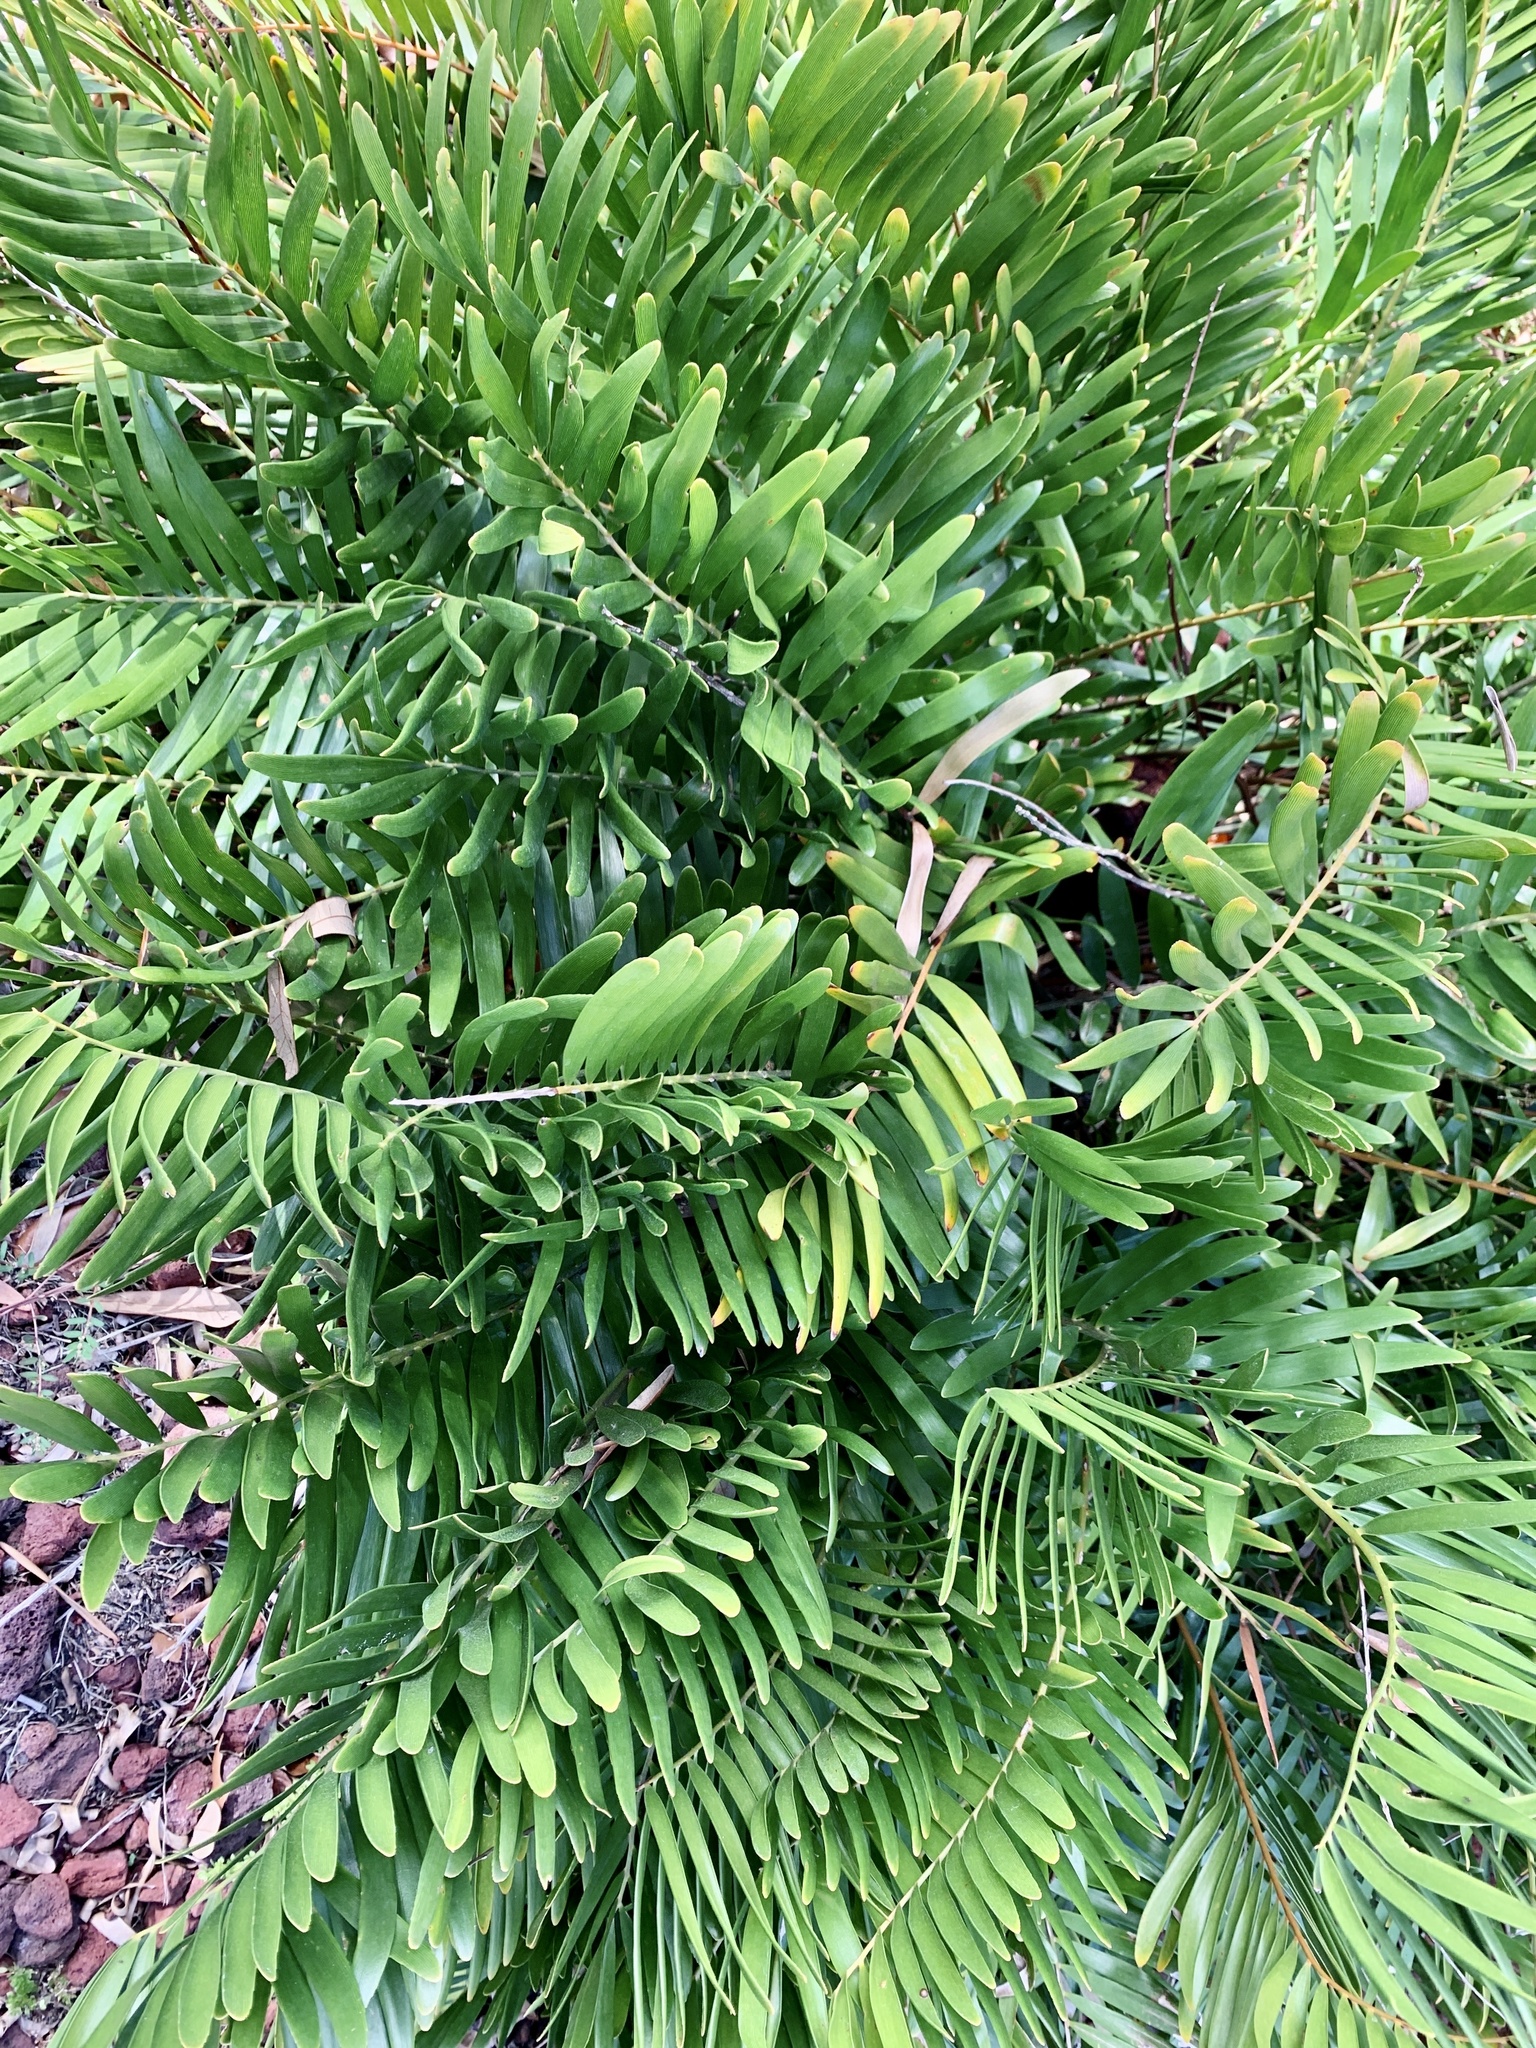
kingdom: Plantae
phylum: Tracheophyta
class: Cycadopsida
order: Cycadales
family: Zamiaceae
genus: Zamia
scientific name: Zamia integrifolia
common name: Florida arrowroot
